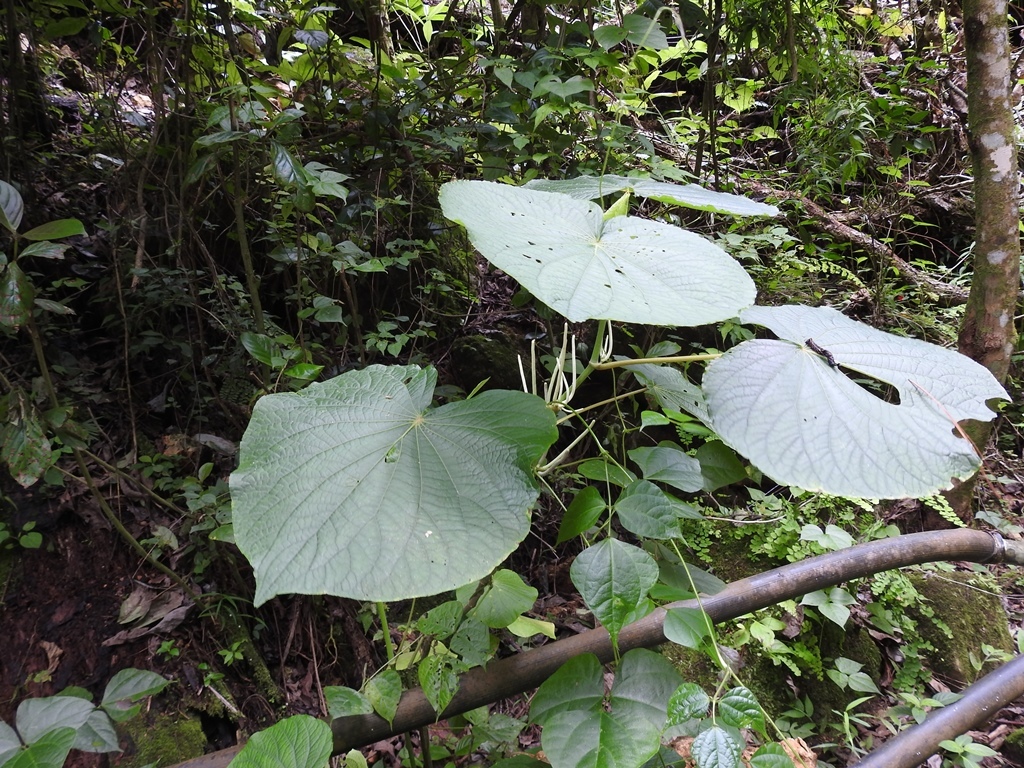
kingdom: Plantae
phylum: Tracheophyta
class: Magnoliopsida
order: Piperales
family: Piperaceae
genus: Piper
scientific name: Piper peltatum
